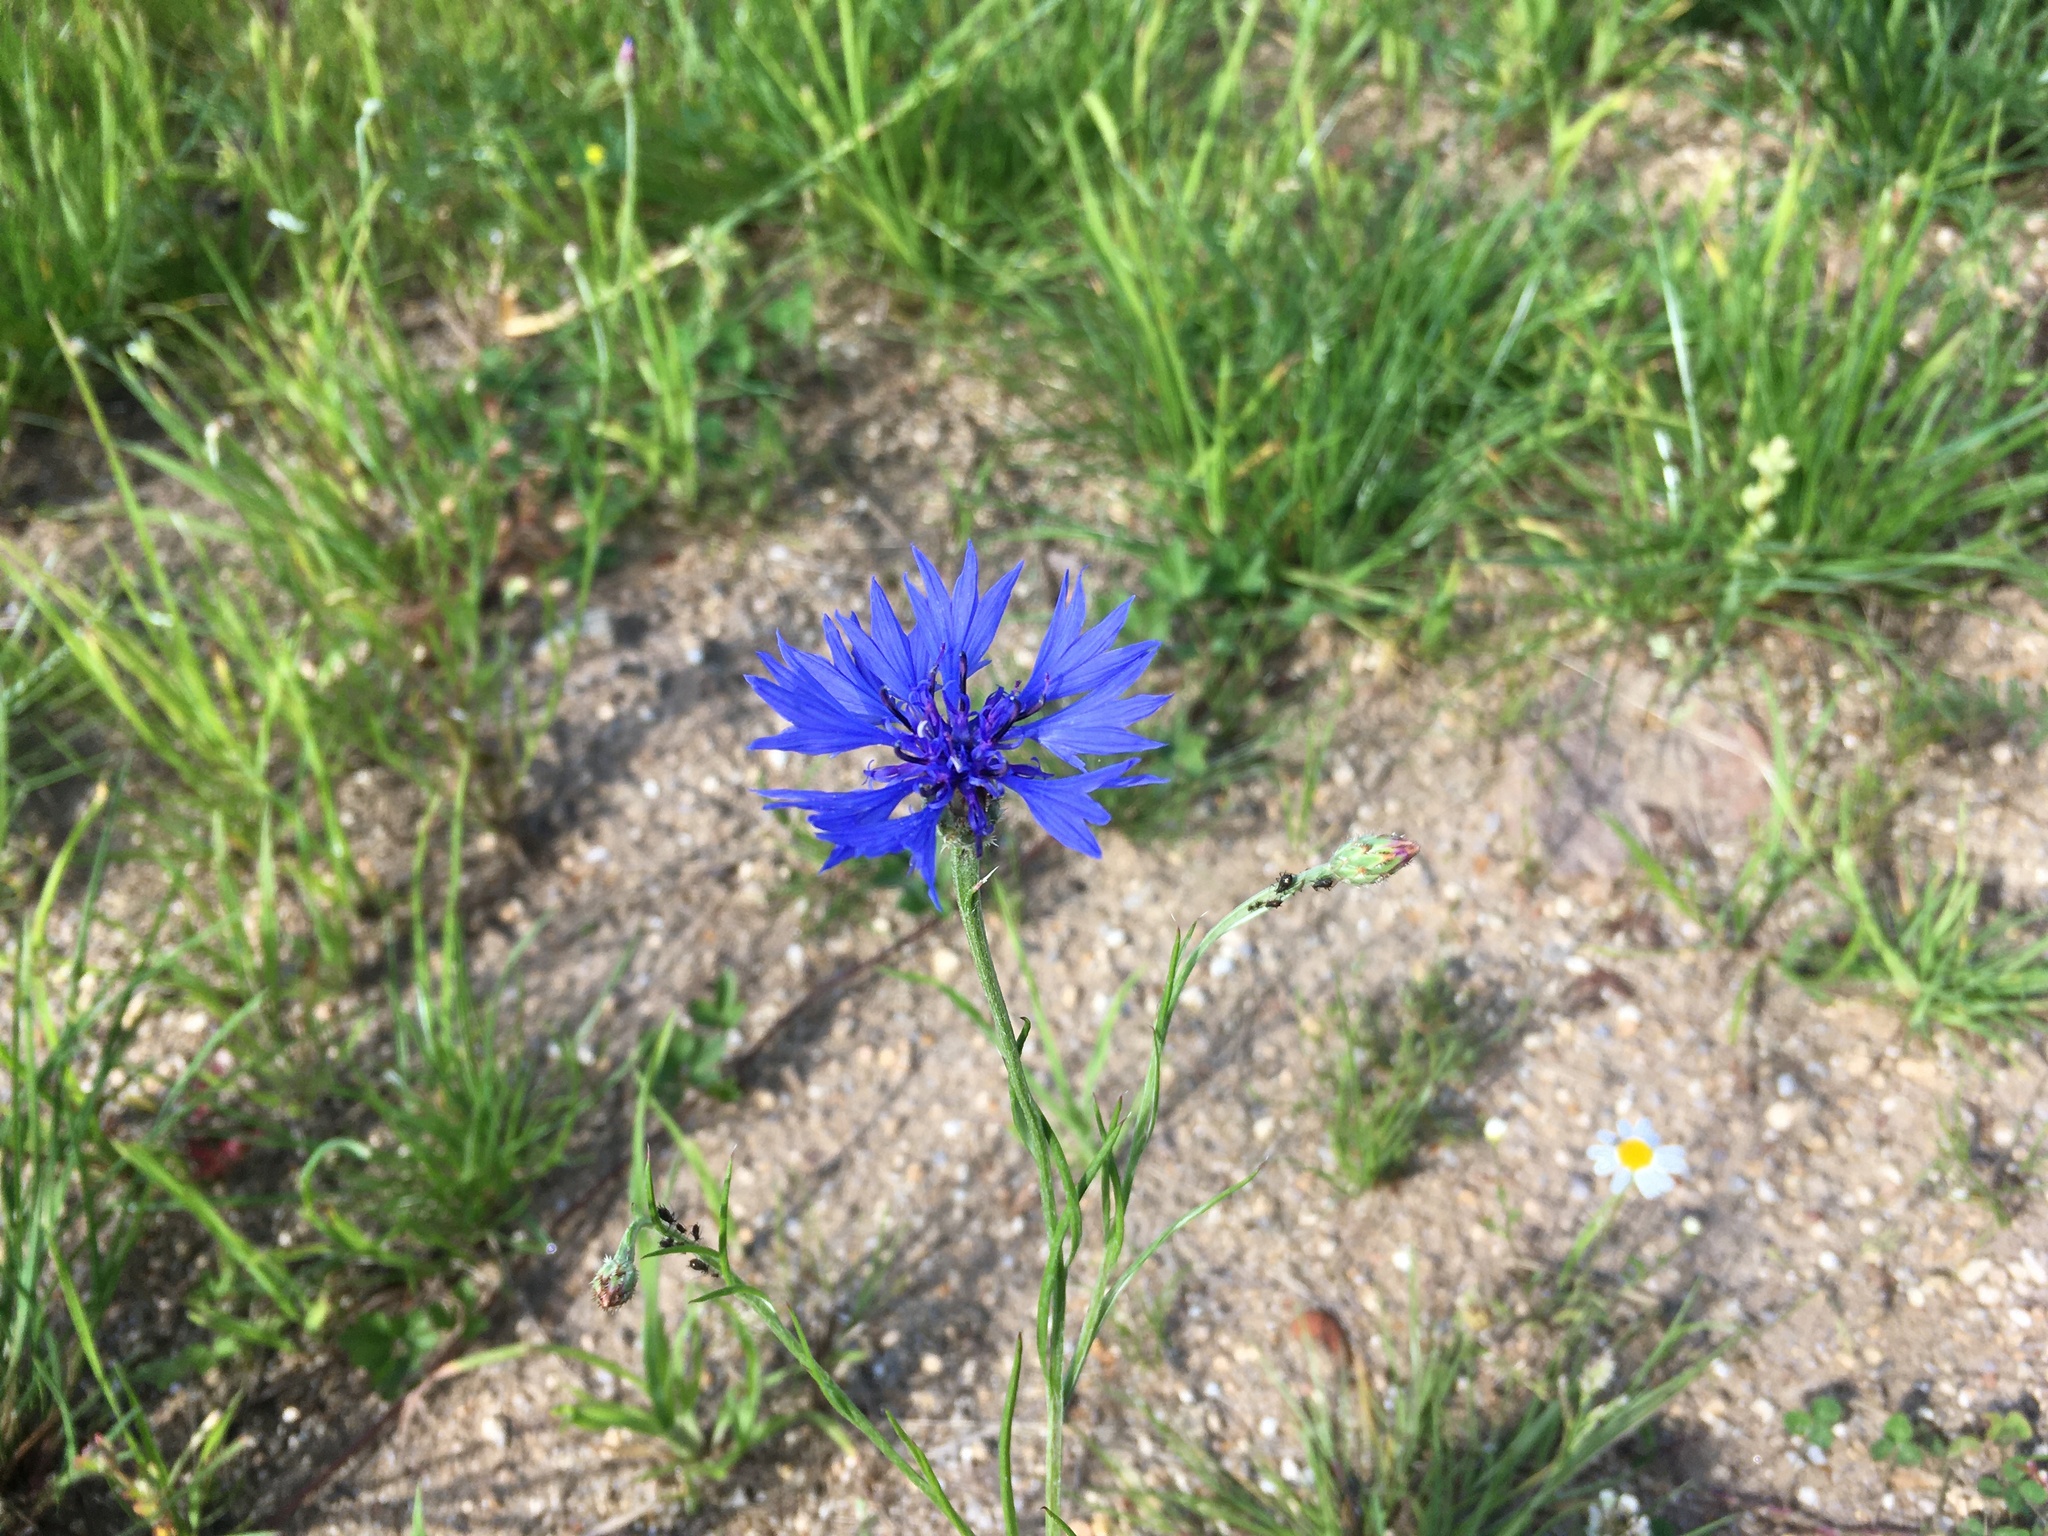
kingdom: Plantae
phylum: Tracheophyta
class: Magnoliopsida
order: Asterales
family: Asteraceae
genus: Centaurea
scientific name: Centaurea cyanus
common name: Cornflower
